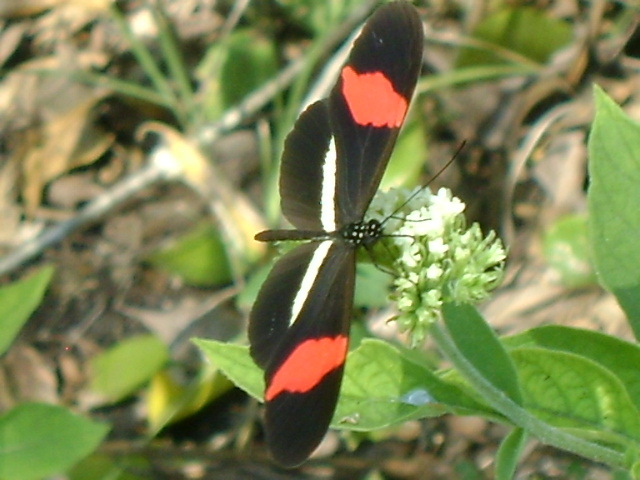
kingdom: Animalia
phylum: Arthropoda
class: Insecta
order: Lepidoptera
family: Nymphalidae
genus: Heliconius
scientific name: Heliconius erato
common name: Common patch longwing
